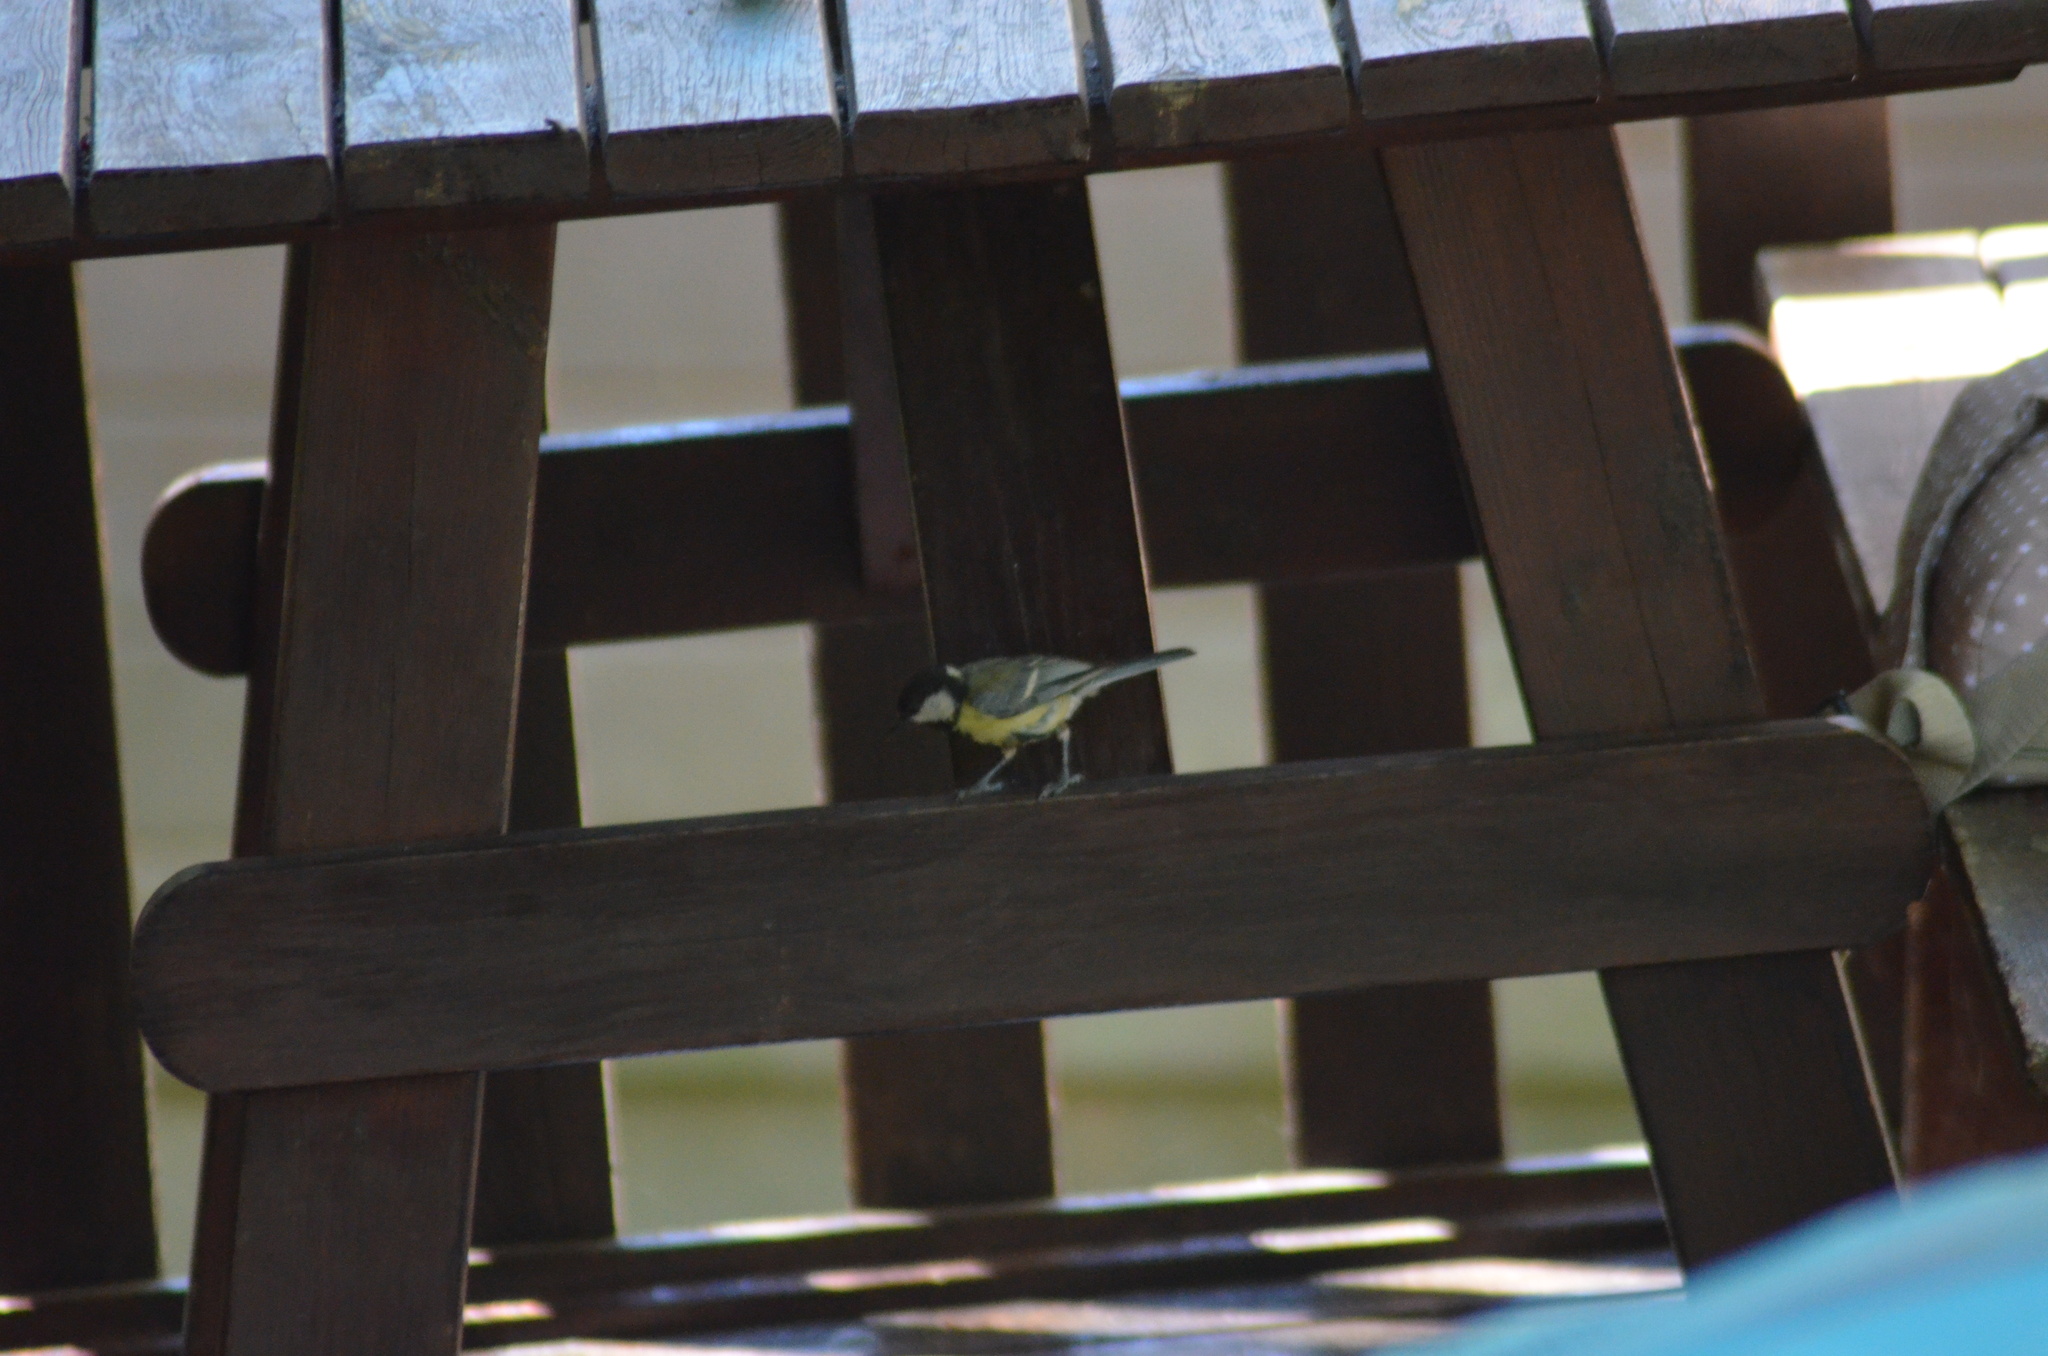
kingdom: Animalia
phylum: Chordata
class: Aves
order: Passeriformes
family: Paridae
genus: Parus
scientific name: Parus major
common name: Great tit
